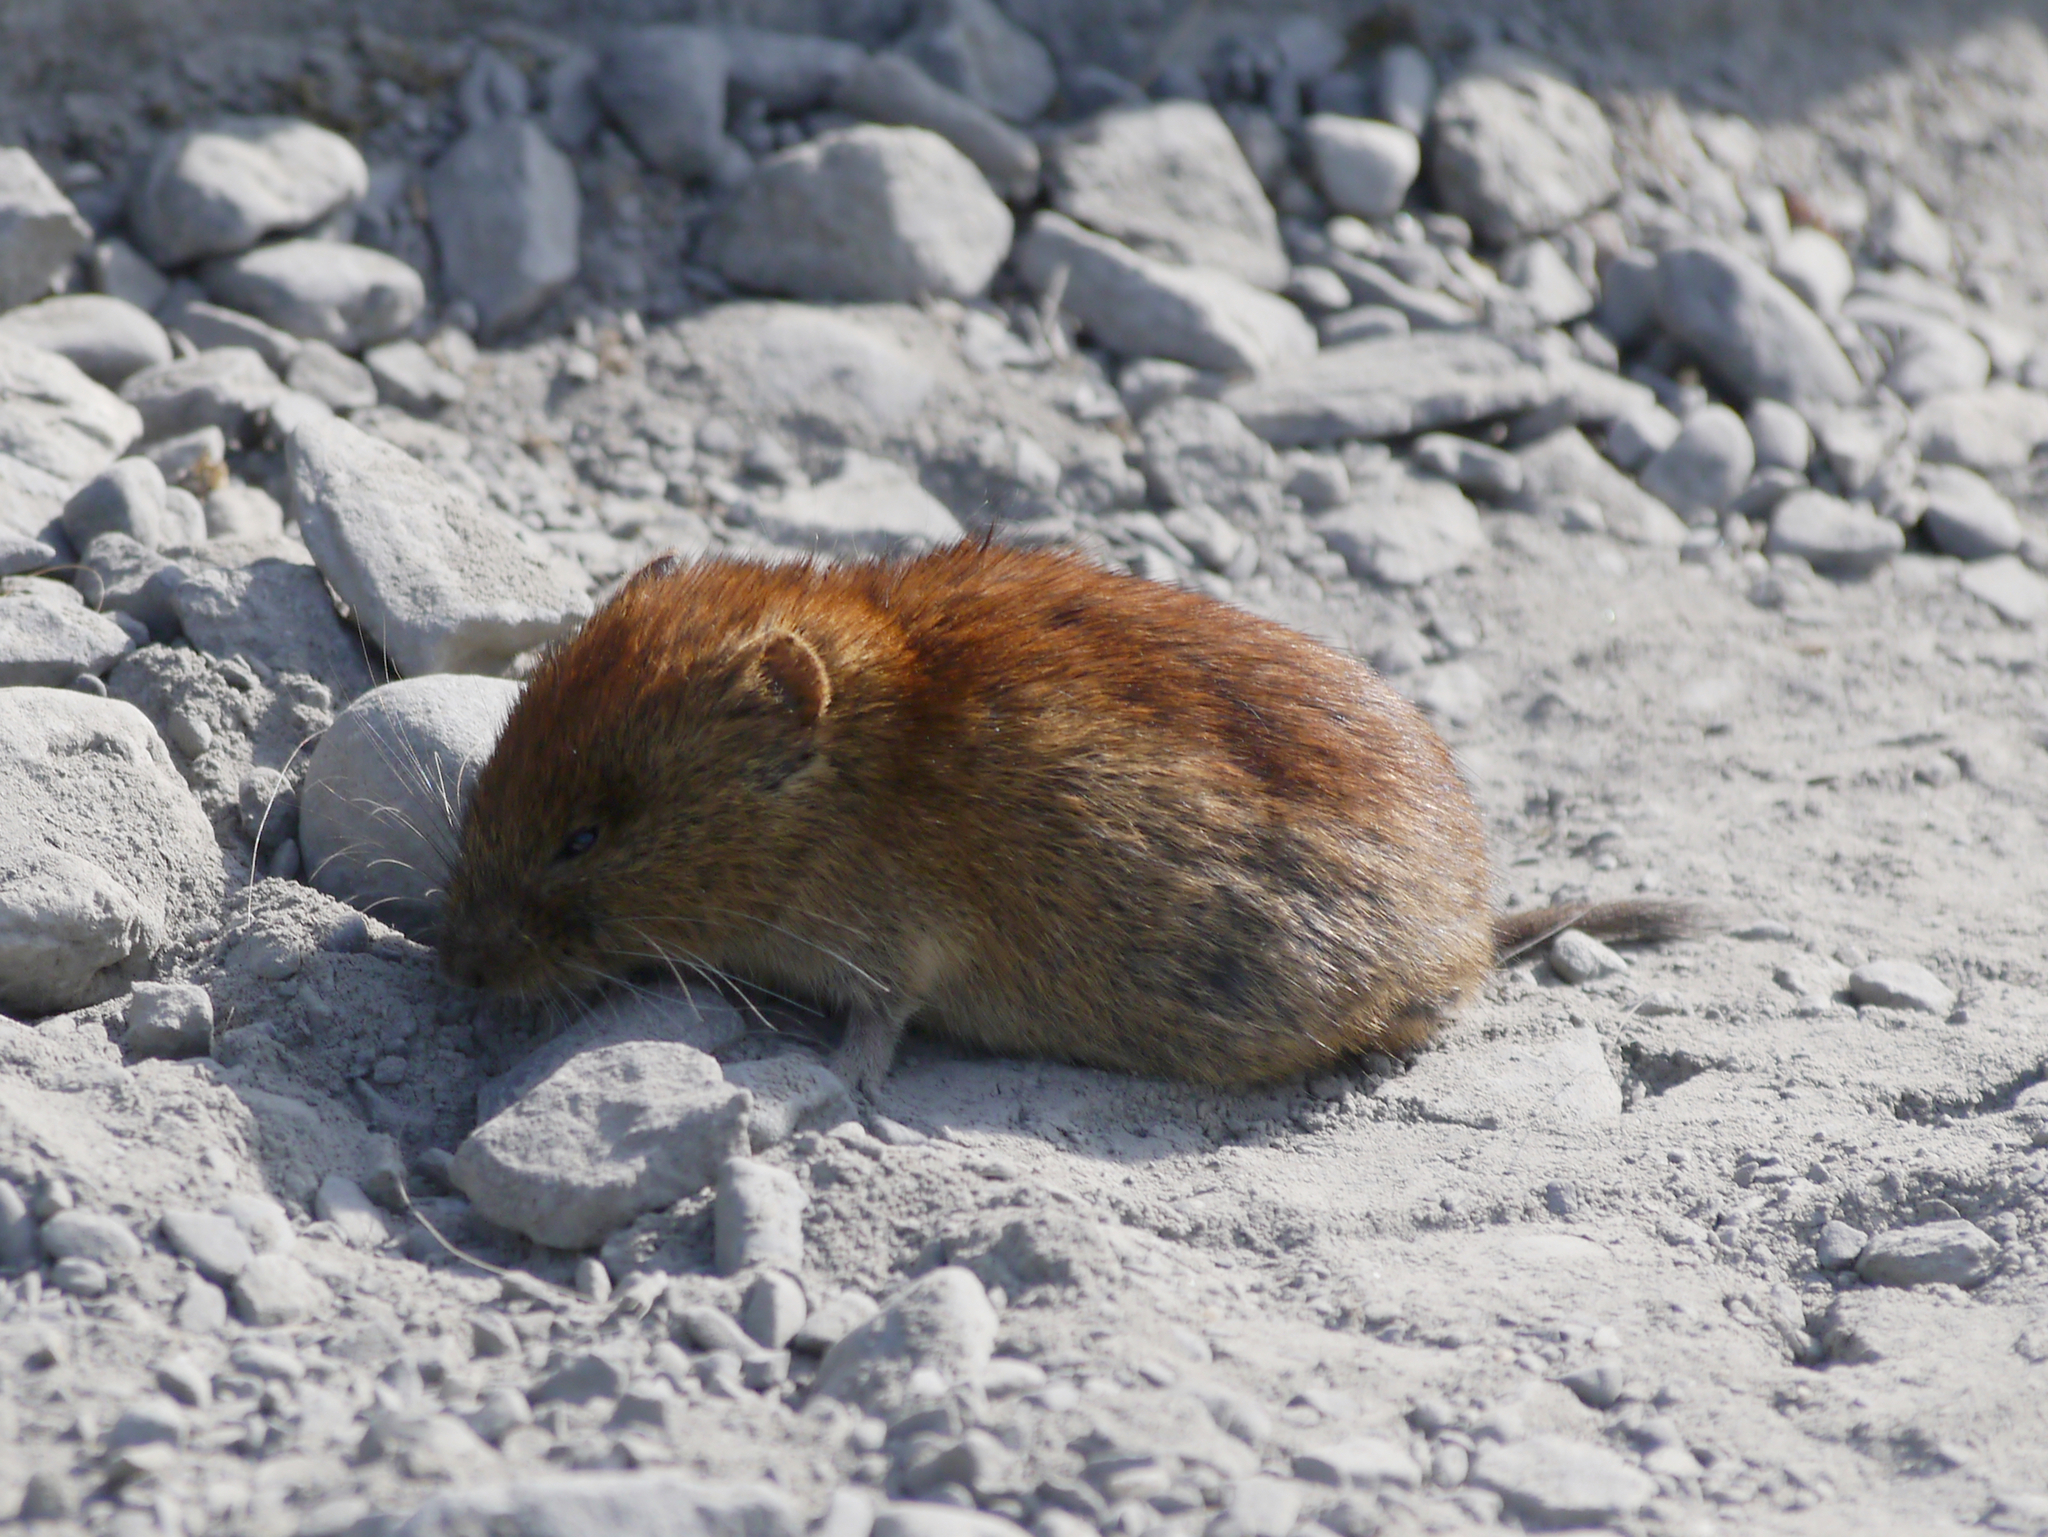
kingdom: Animalia
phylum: Chordata
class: Mammalia
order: Rodentia
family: Cricetidae
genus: Myodes
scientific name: Myodes rutilus
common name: Northern red-backed vole
